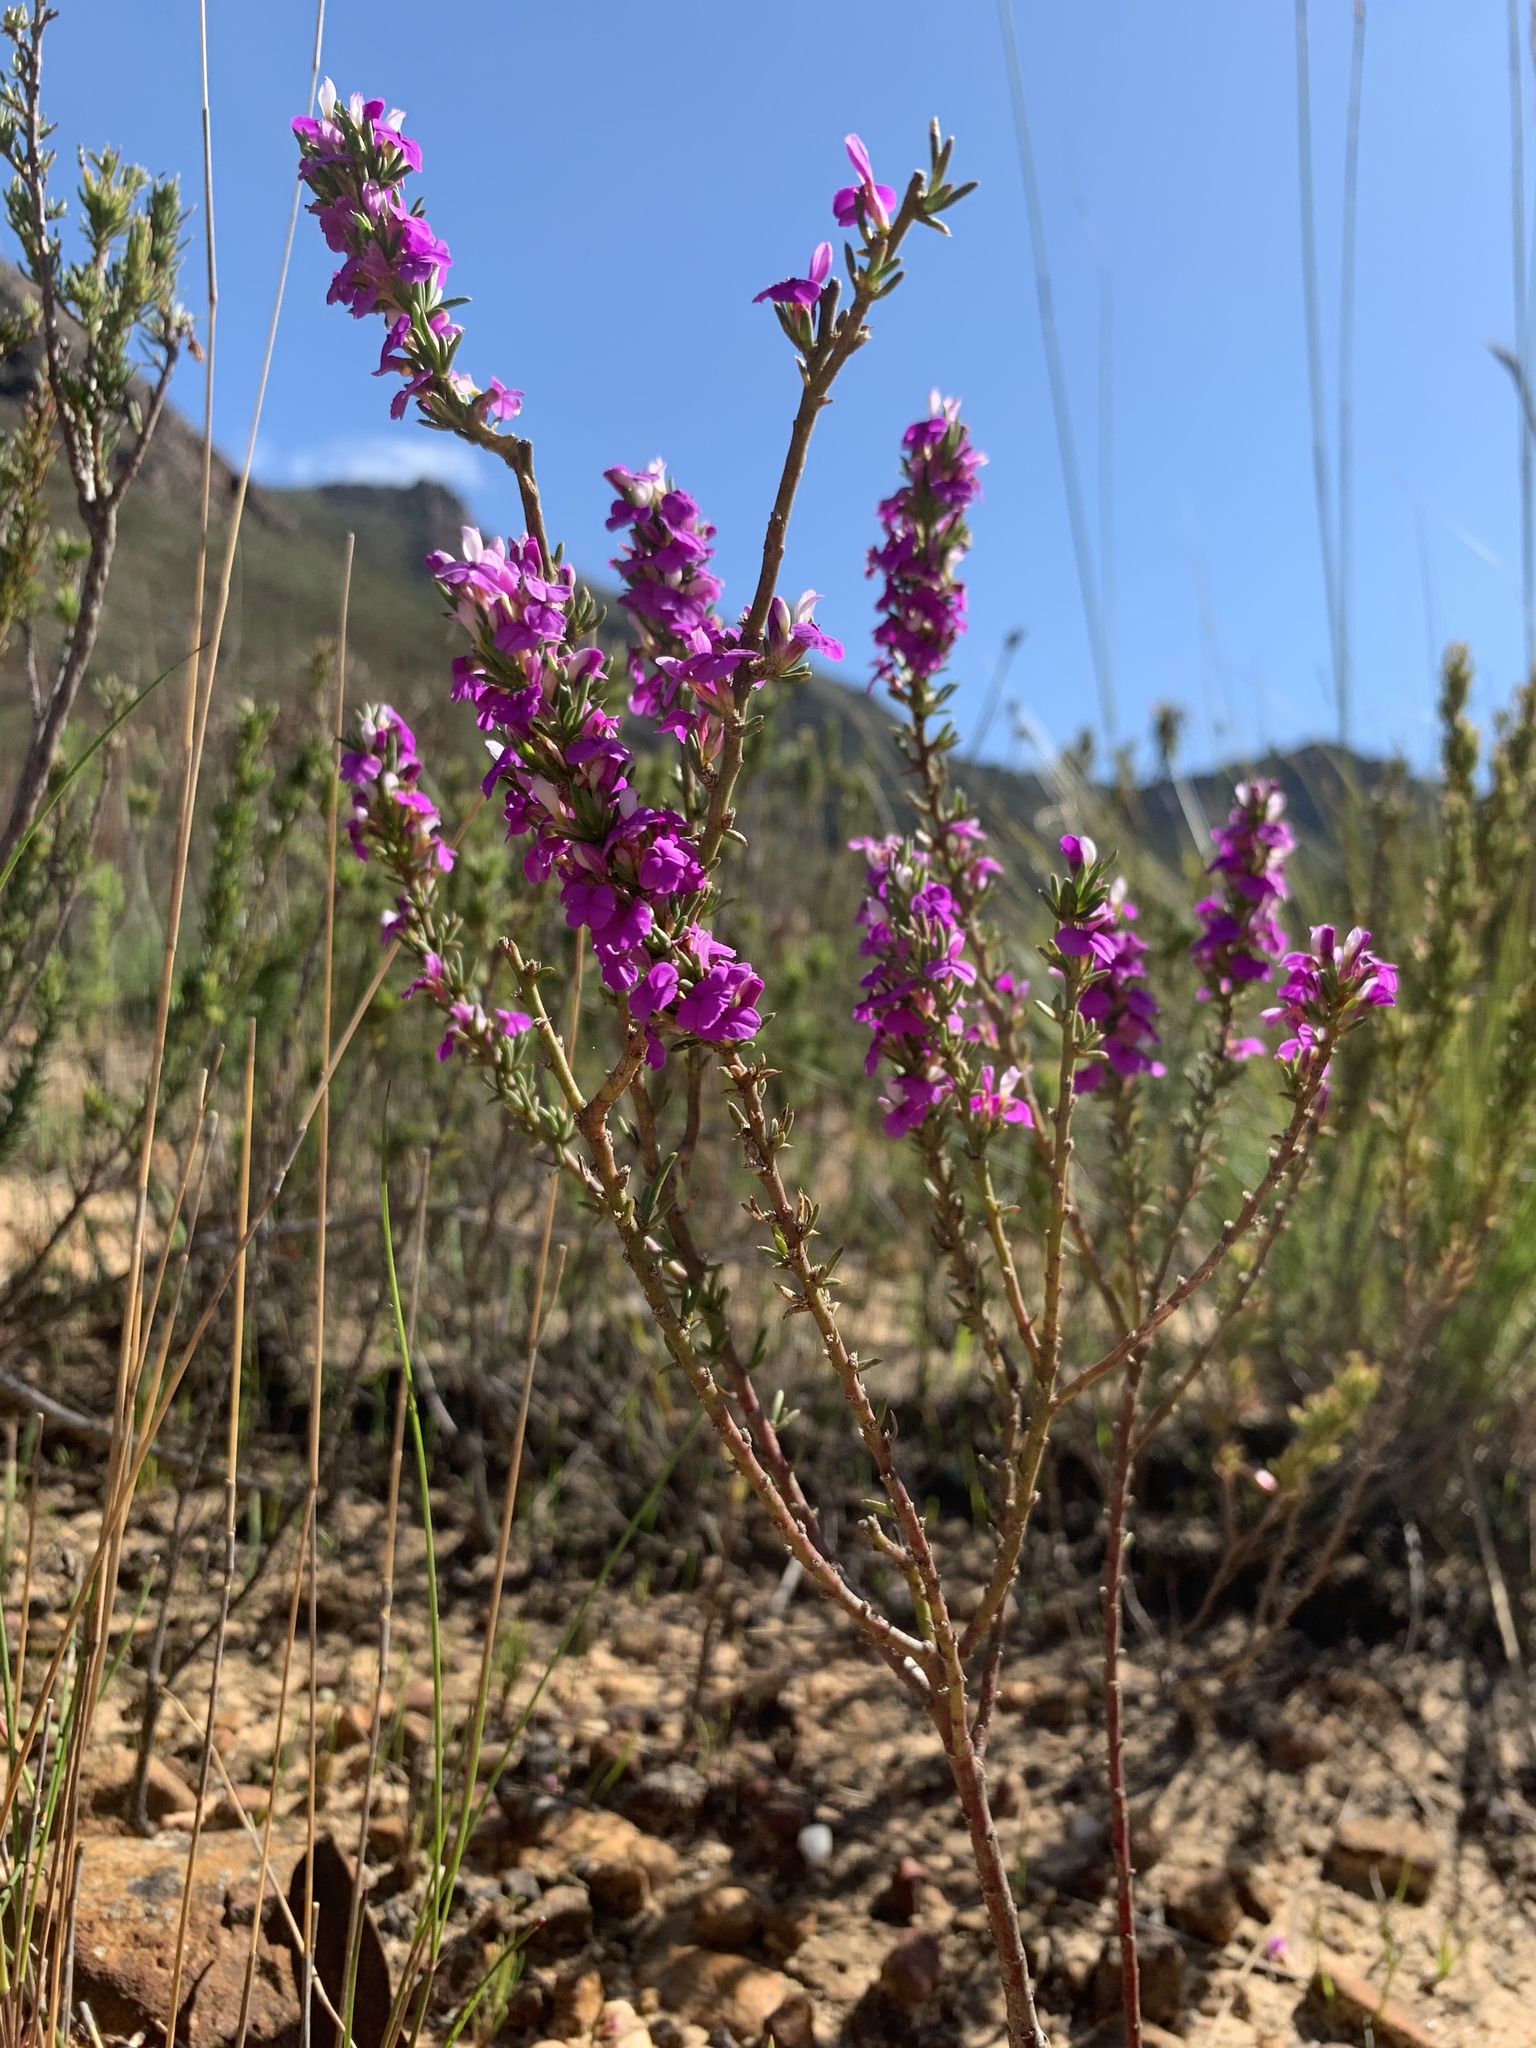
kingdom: Plantae
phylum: Tracheophyta
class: Magnoliopsida
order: Fabales
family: Polygalaceae
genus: Muraltia
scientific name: Muraltia heisteria
